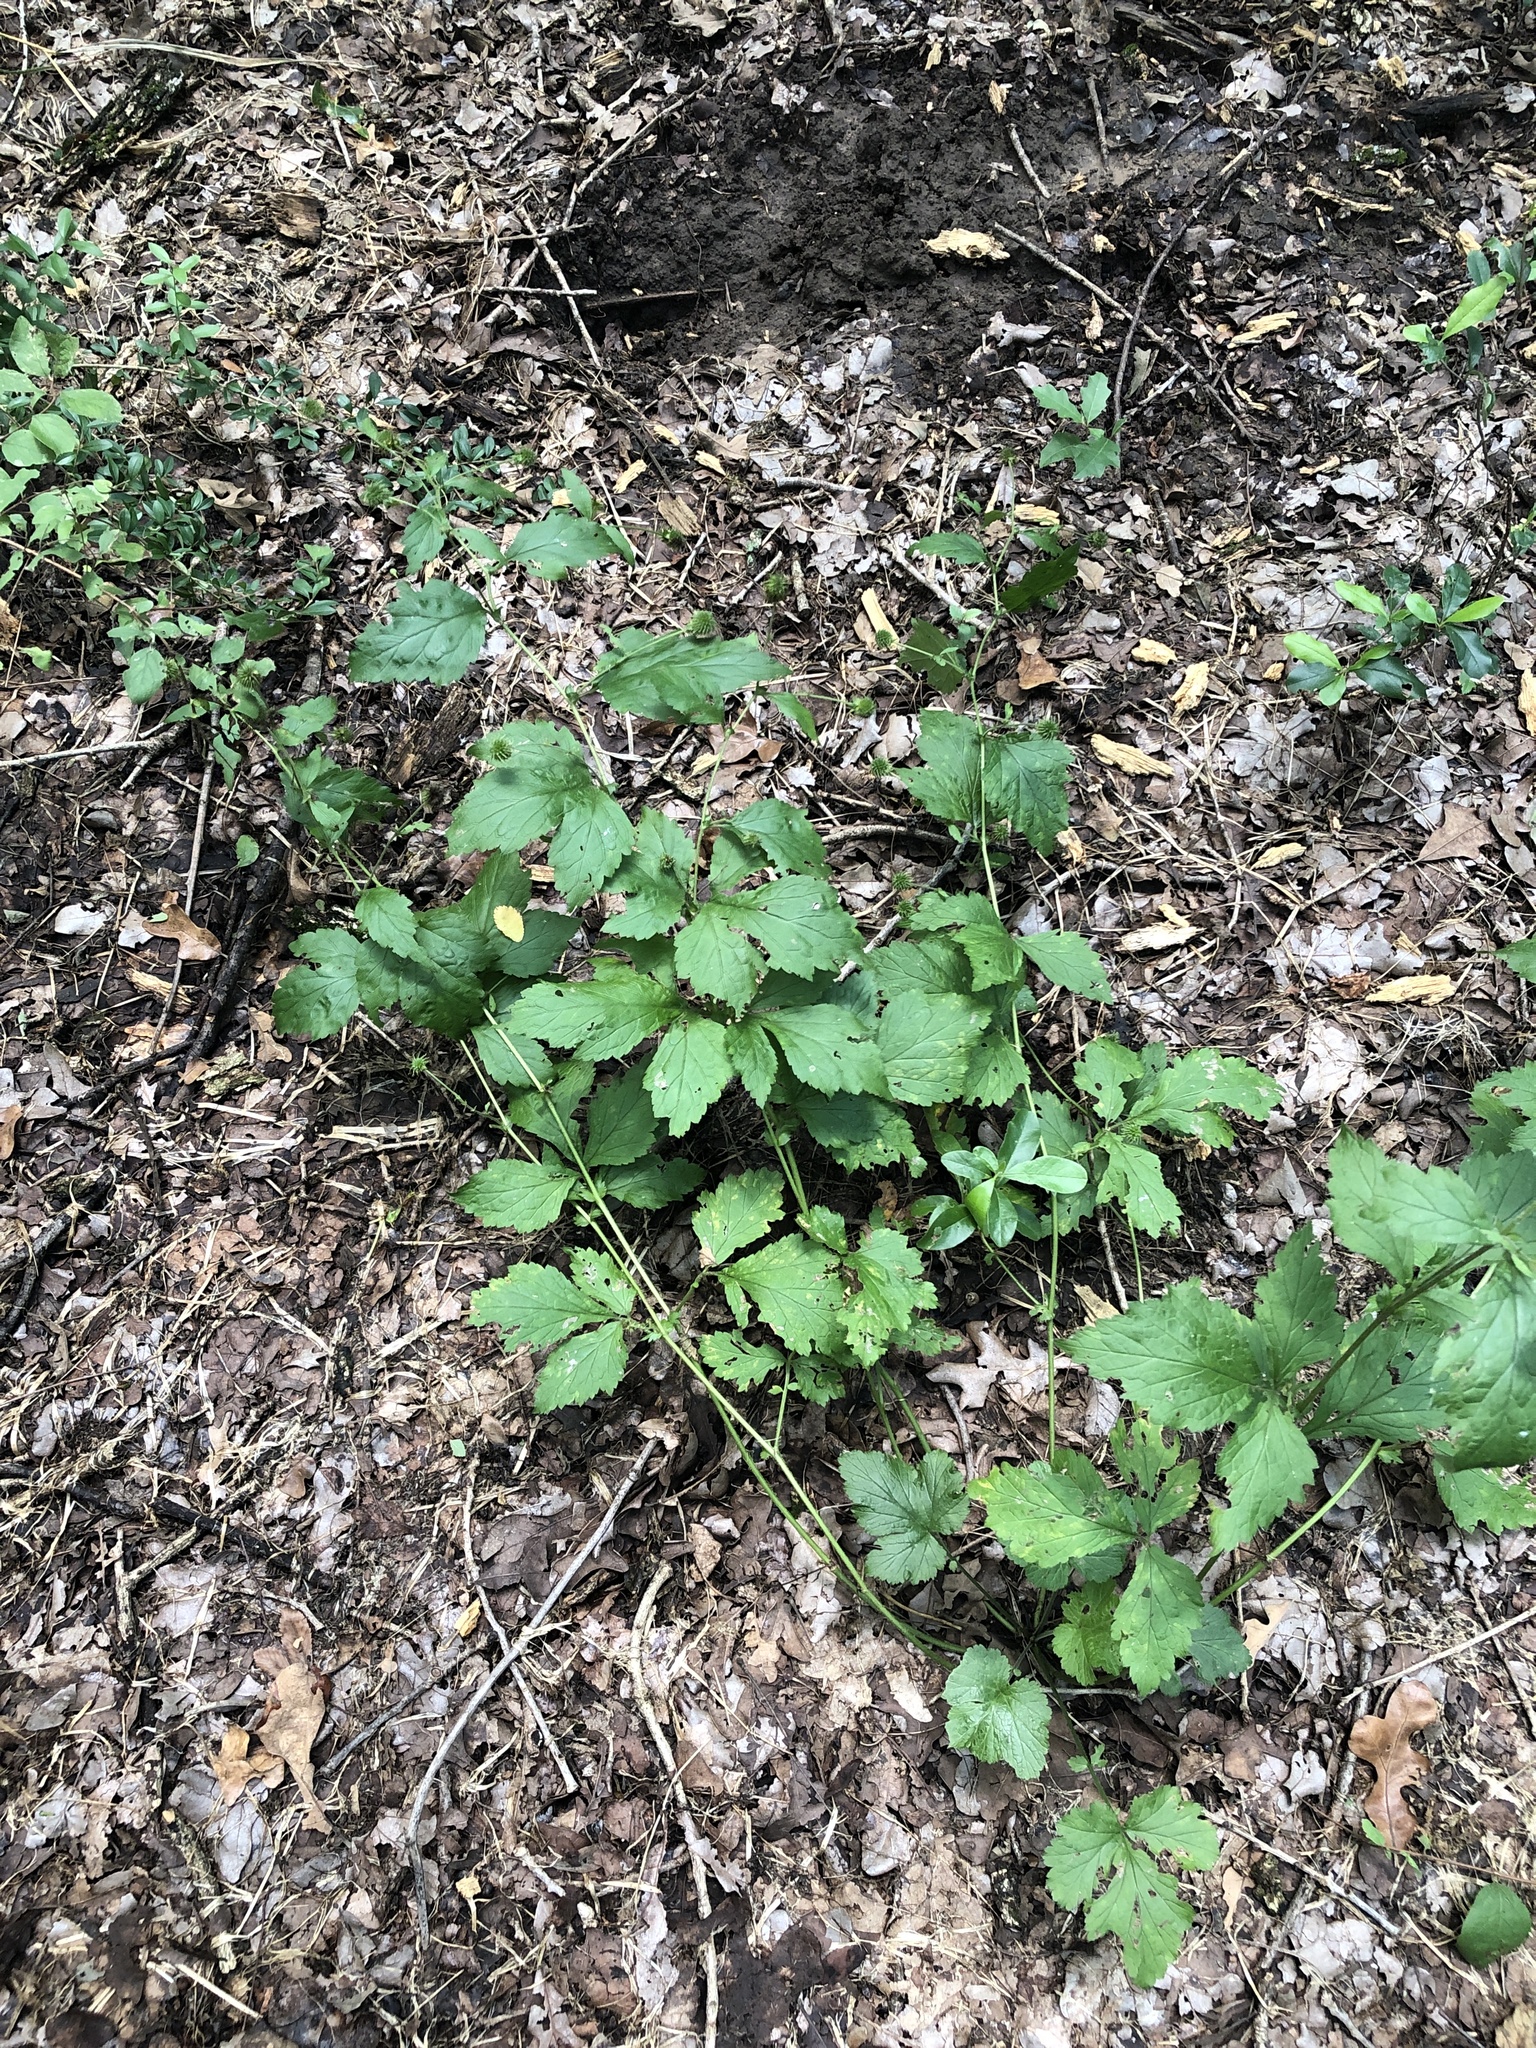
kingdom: Plantae
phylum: Tracheophyta
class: Magnoliopsida
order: Rosales
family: Rosaceae
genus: Geum
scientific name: Geum canadense
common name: White avens
